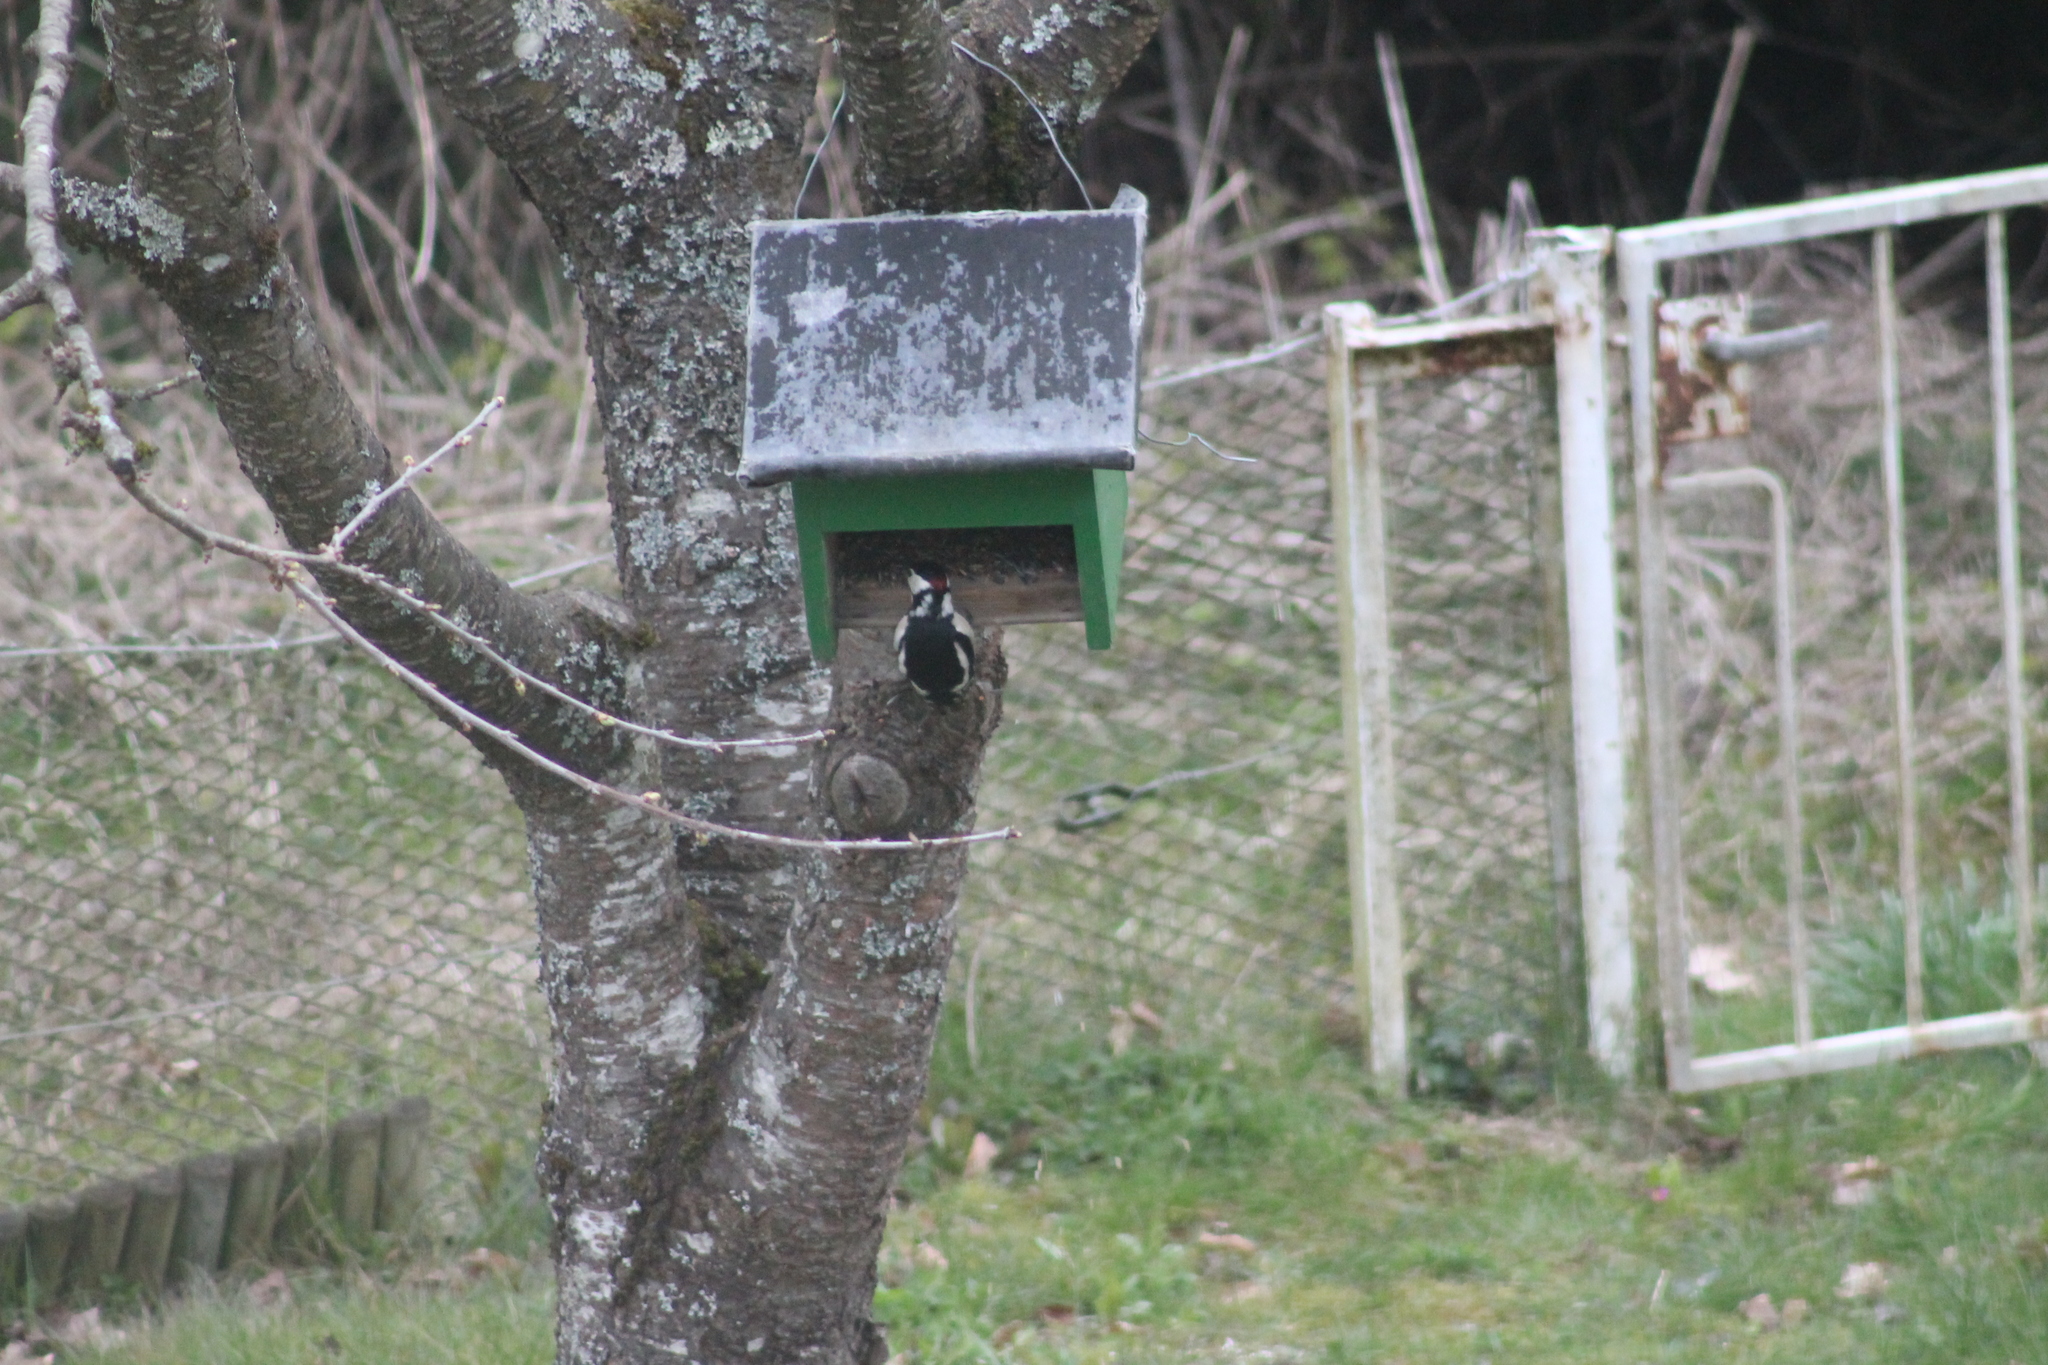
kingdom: Animalia
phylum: Chordata
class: Aves
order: Piciformes
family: Picidae
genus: Dendrocopos
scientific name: Dendrocopos major
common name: Great spotted woodpecker
